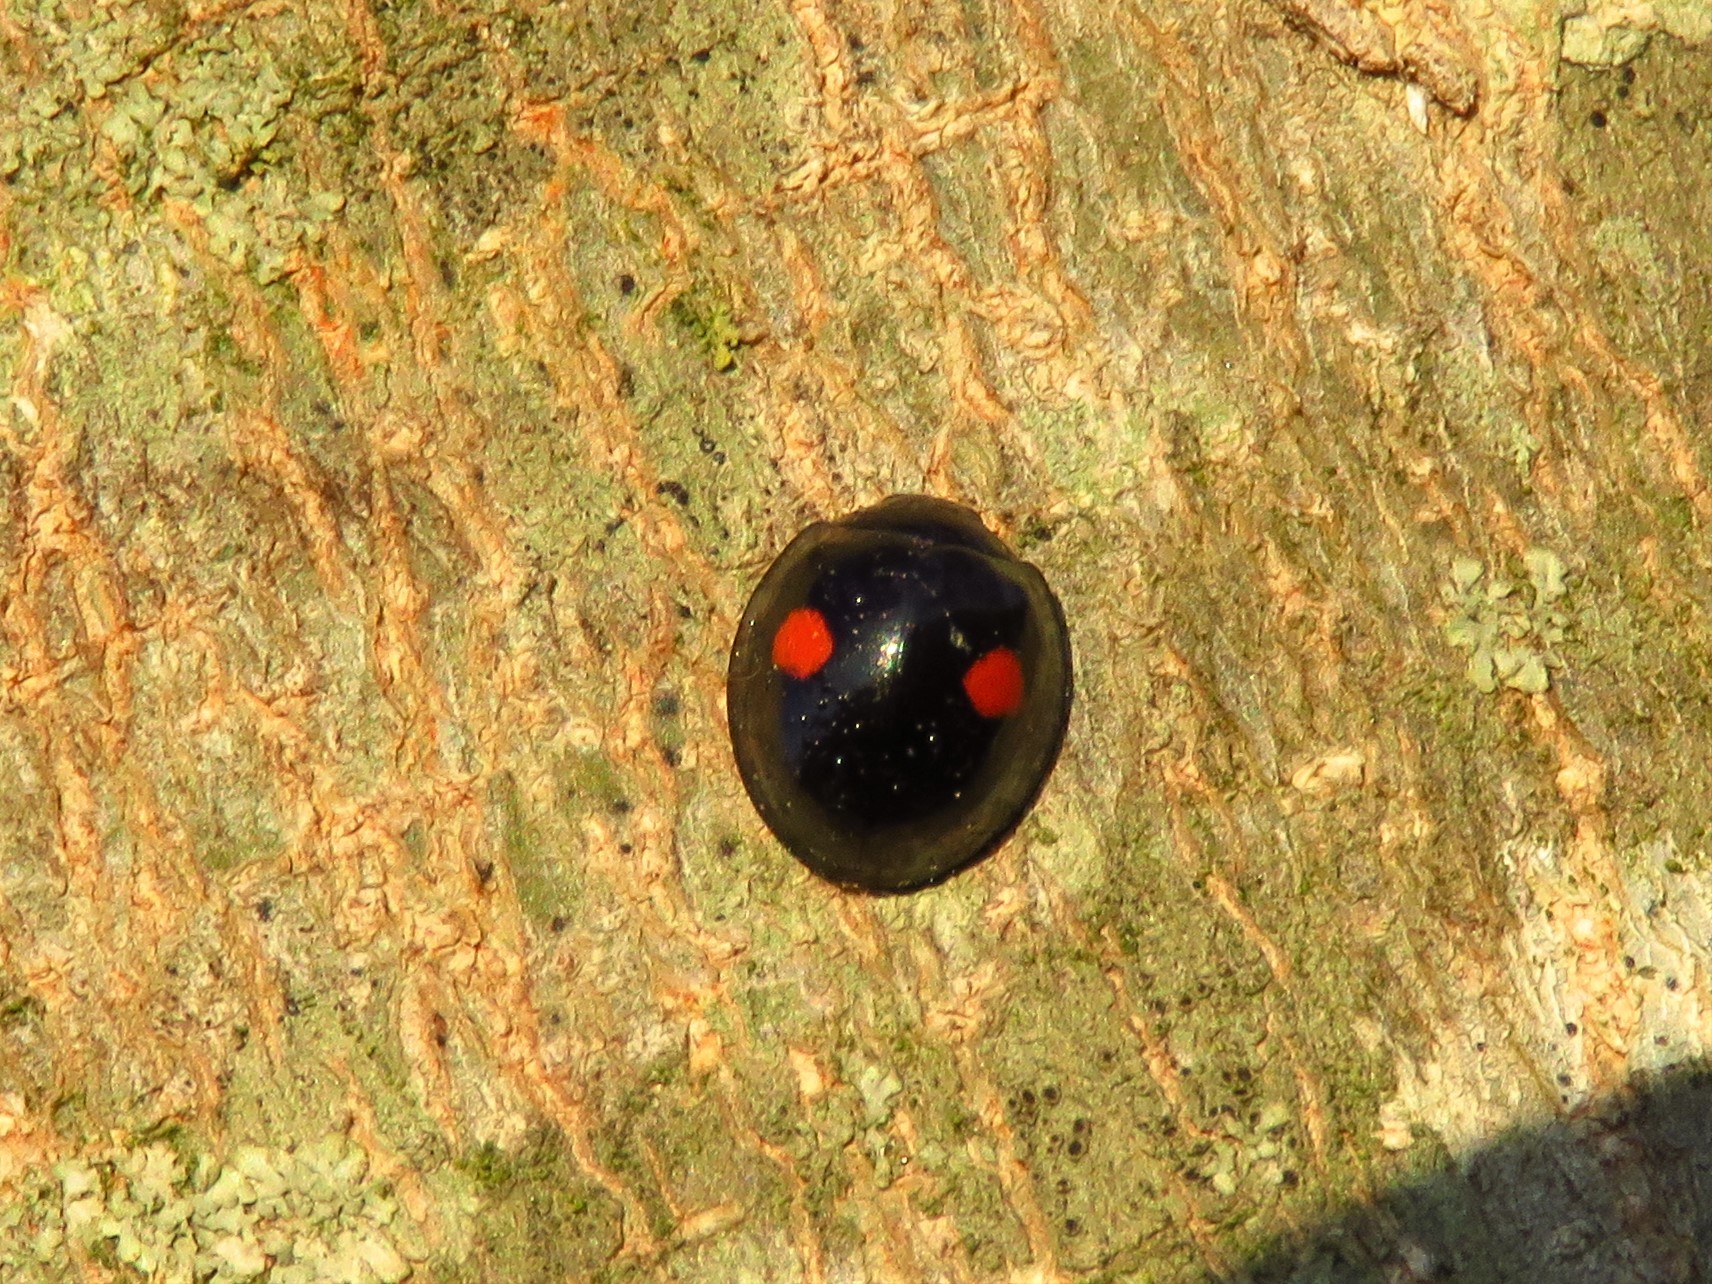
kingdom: Animalia
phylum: Arthropoda
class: Insecta
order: Coleoptera
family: Coccinellidae
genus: Chilocorus
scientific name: Chilocorus stigma
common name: Twicestabbed lady beetle
